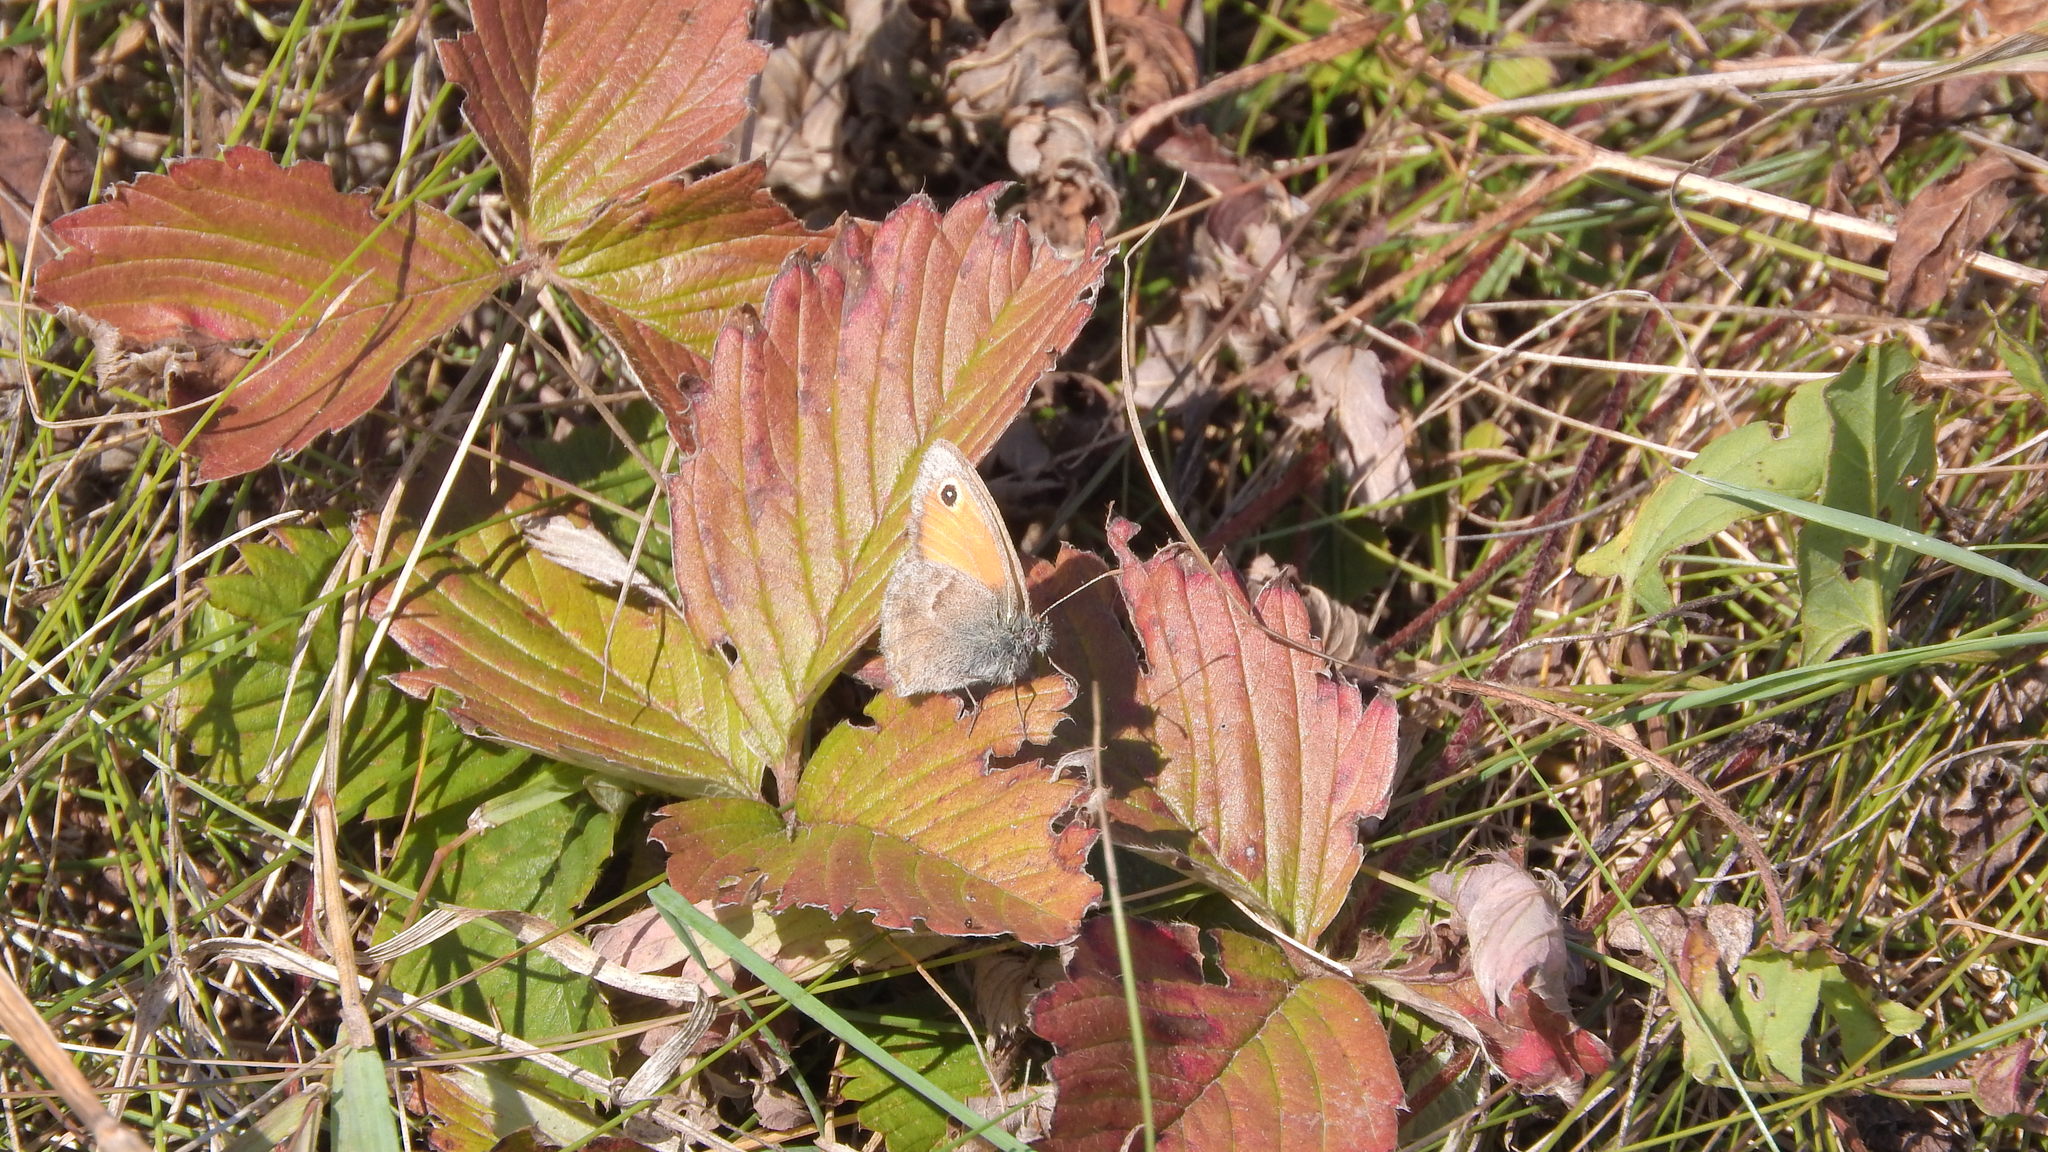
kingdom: Animalia
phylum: Arthropoda
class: Insecta
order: Lepidoptera
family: Nymphalidae
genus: Coenonympha
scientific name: Coenonympha pamphilus
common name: Small heath
